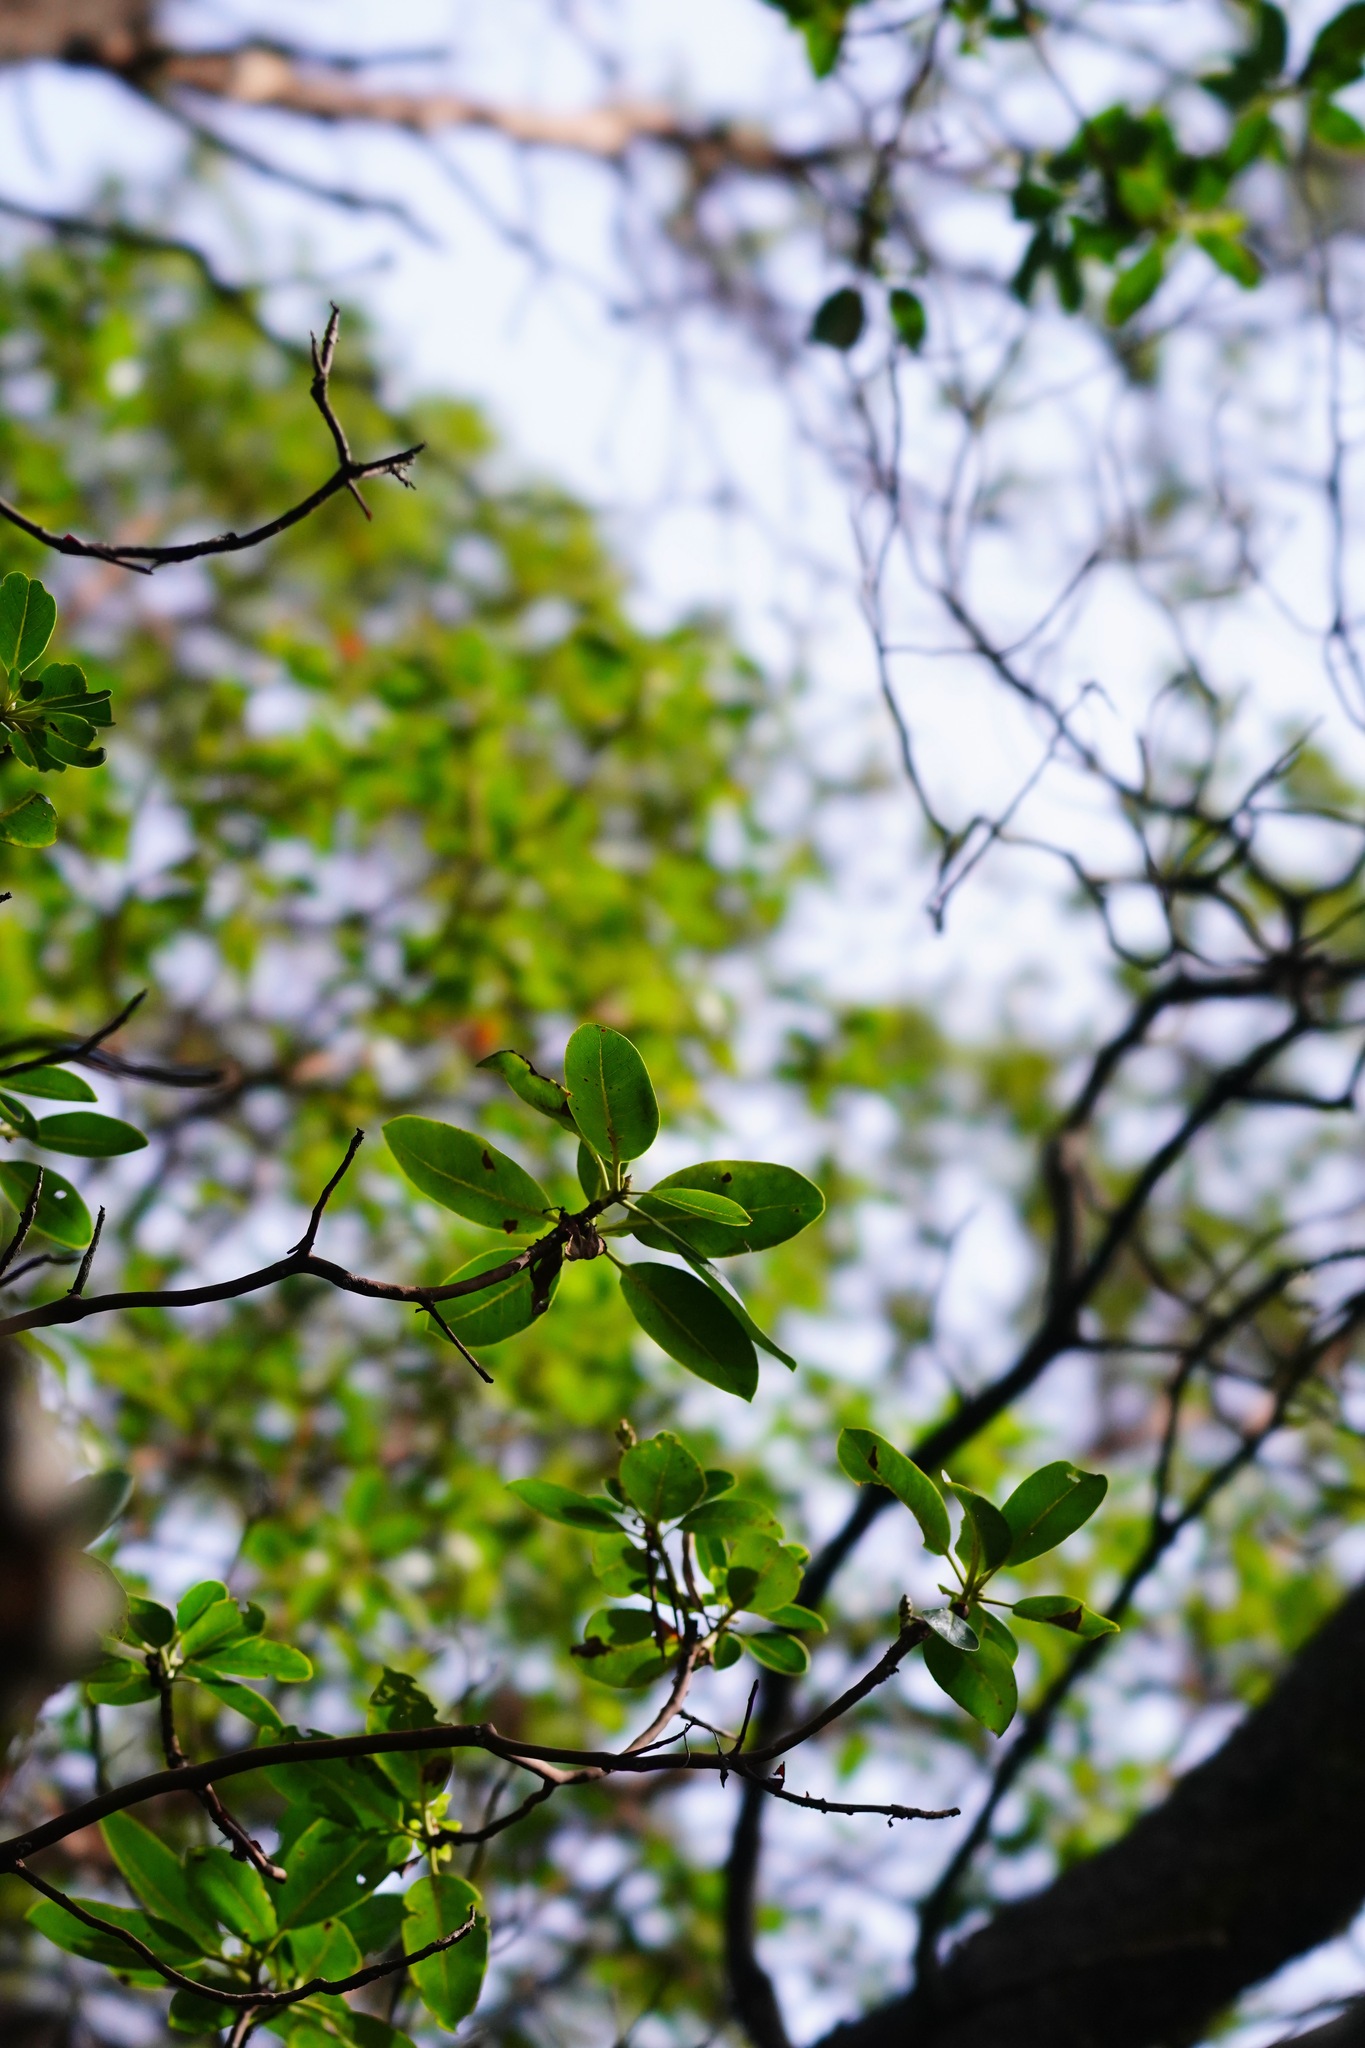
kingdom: Plantae
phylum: Tracheophyta
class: Magnoliopsida
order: Ericales
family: Ericaceae
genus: Arbutus
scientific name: Arbutus menziesii
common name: Pacific madrone
